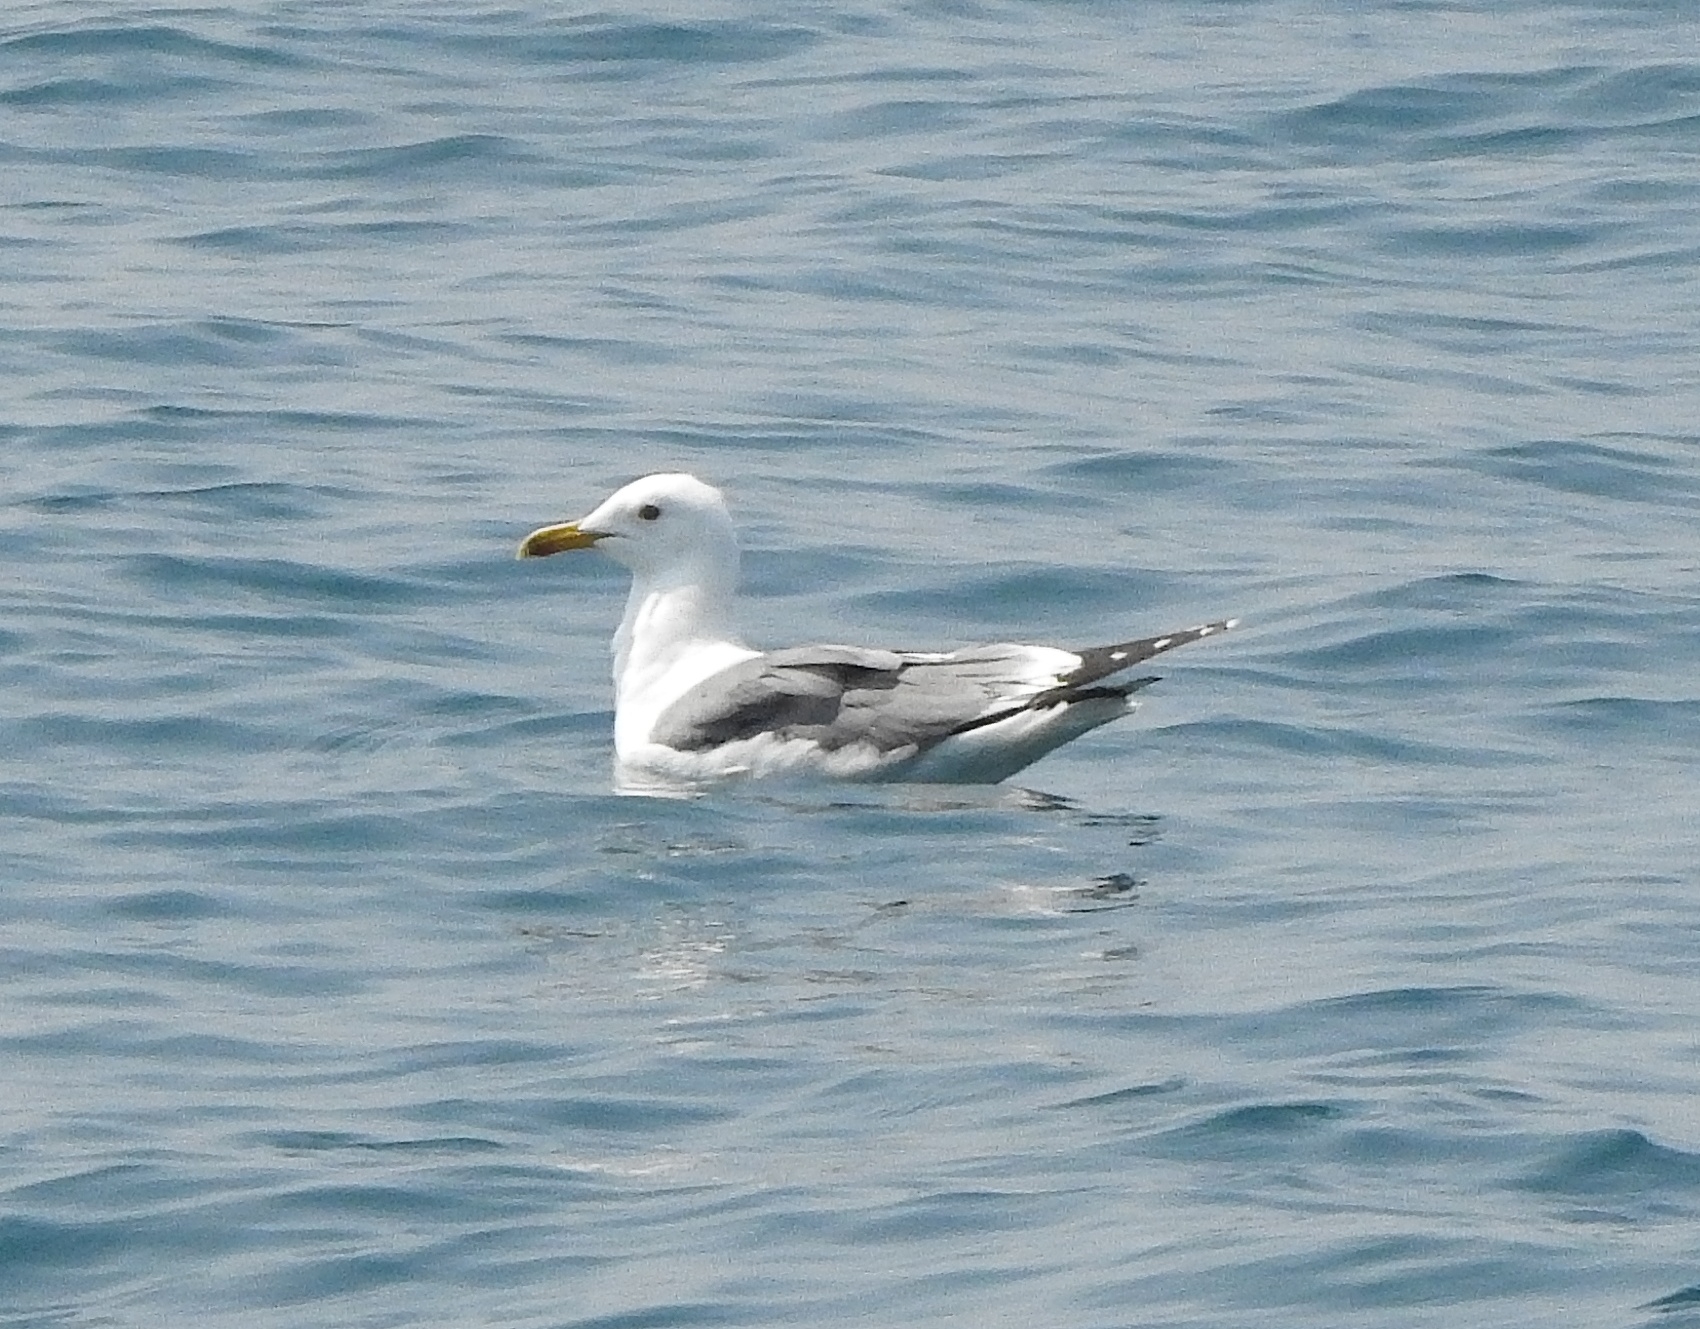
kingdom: Animalia
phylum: Chordata
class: Aves
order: Charadriiformes
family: Laridae
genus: Larus
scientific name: Larus fuscus
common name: Lesser black-backed gull
